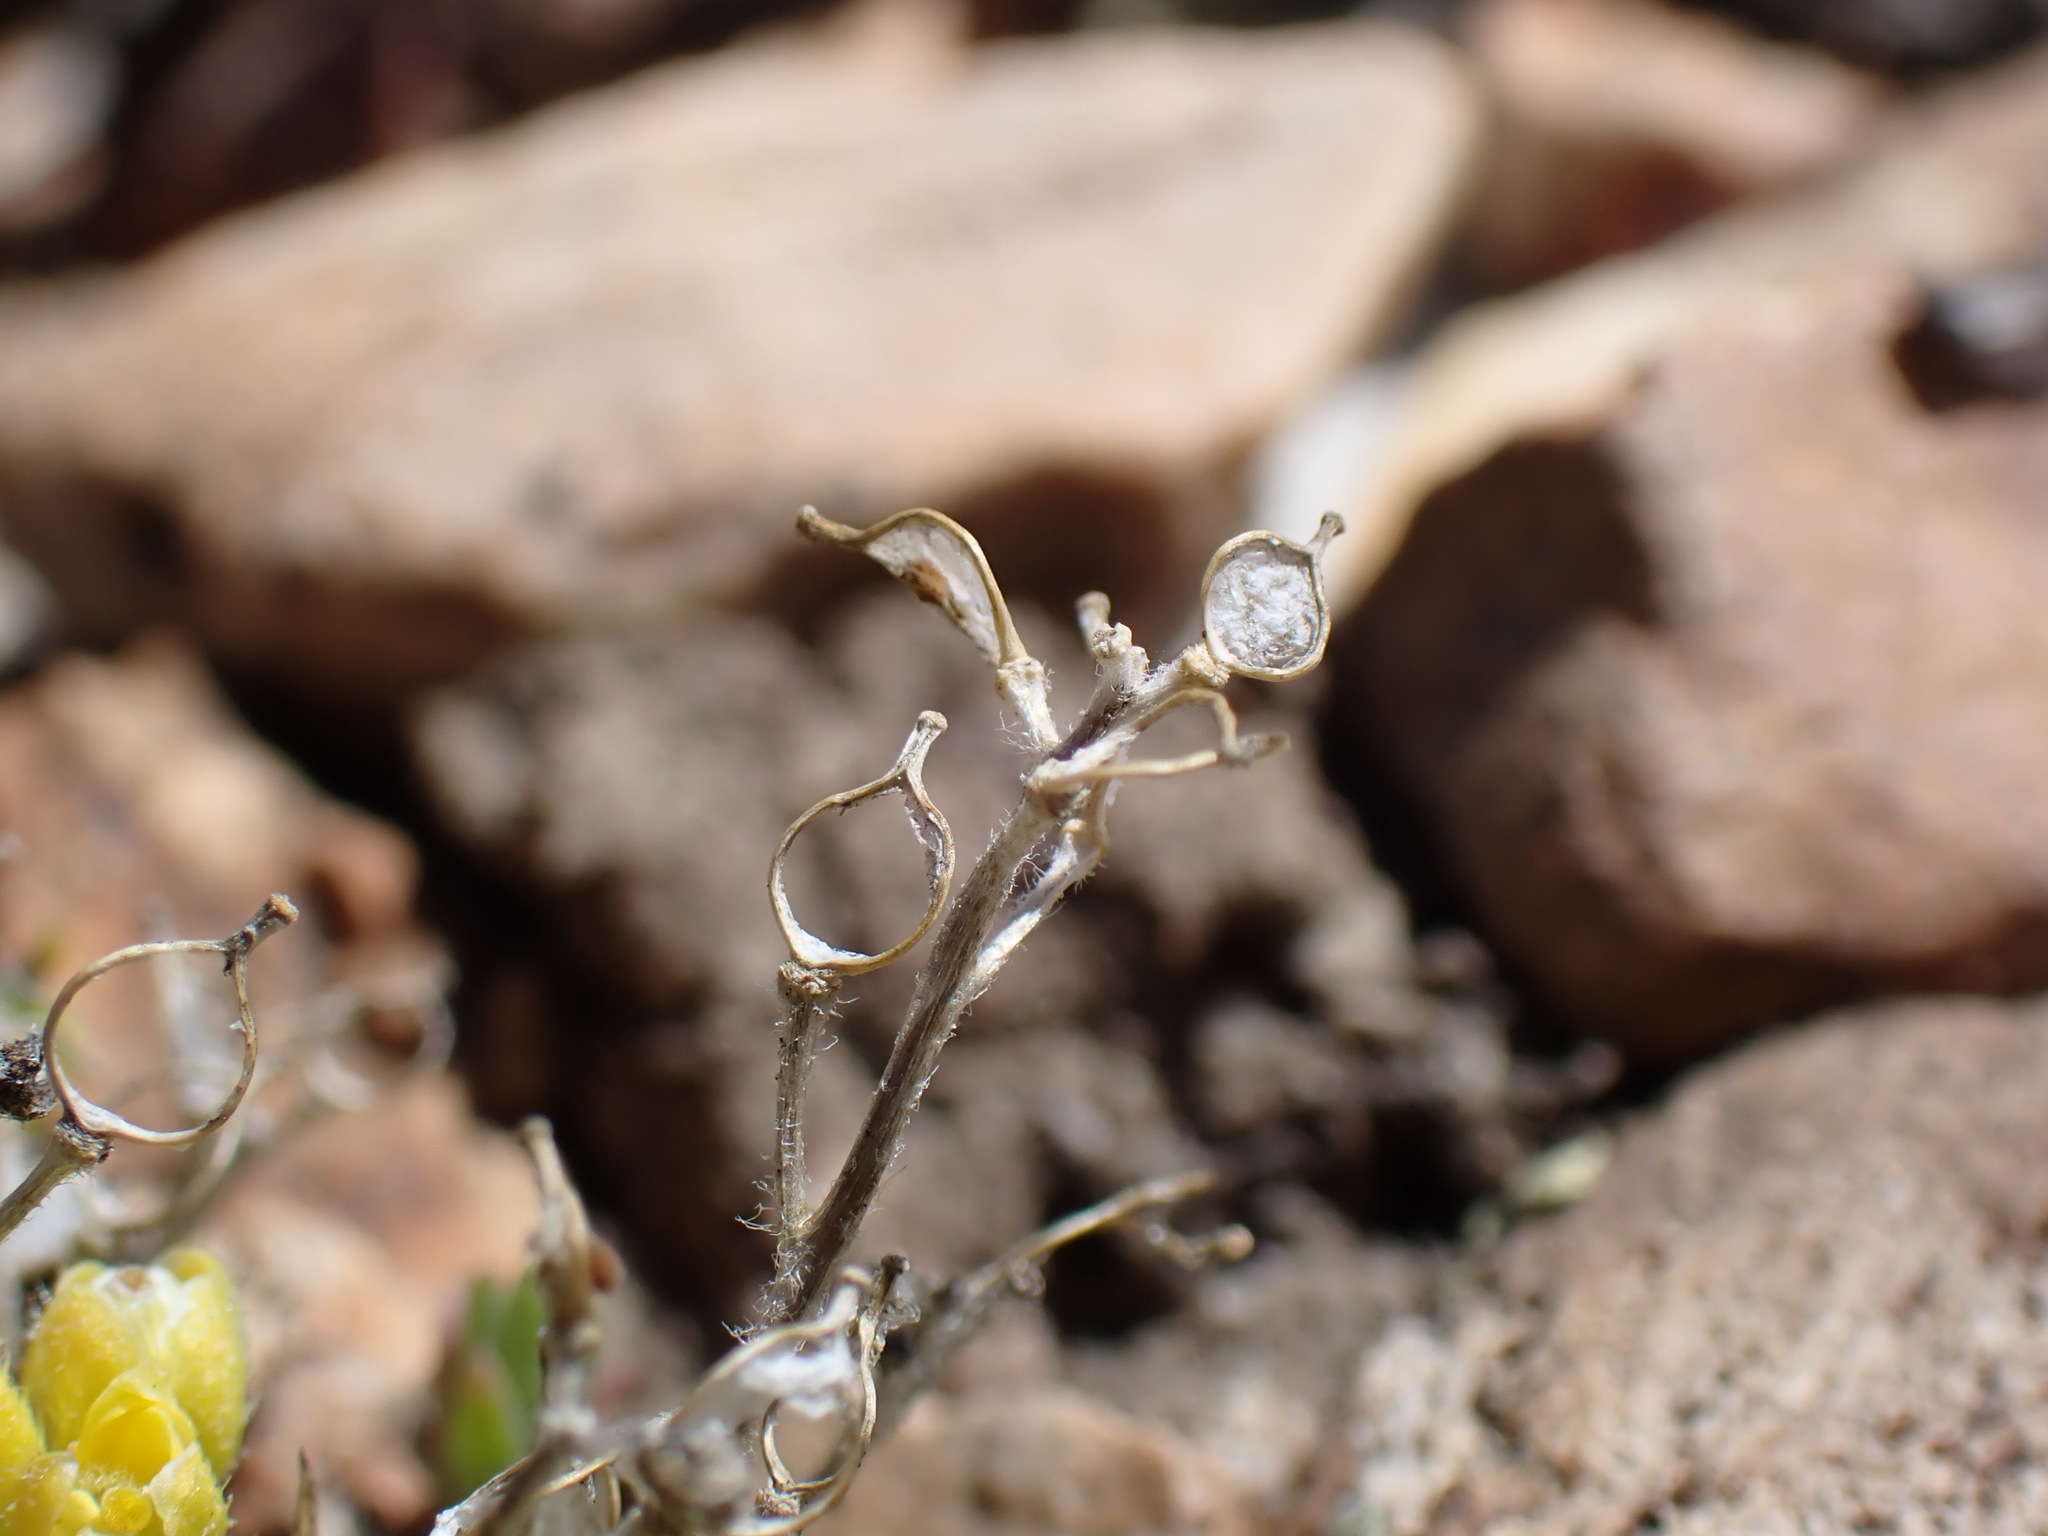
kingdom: Plantae
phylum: Tracheophyta
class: Magnoliopsida
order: Brassicales
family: Brassicaceae
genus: Draba
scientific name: Draba densifolia
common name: Nuttall's draba
